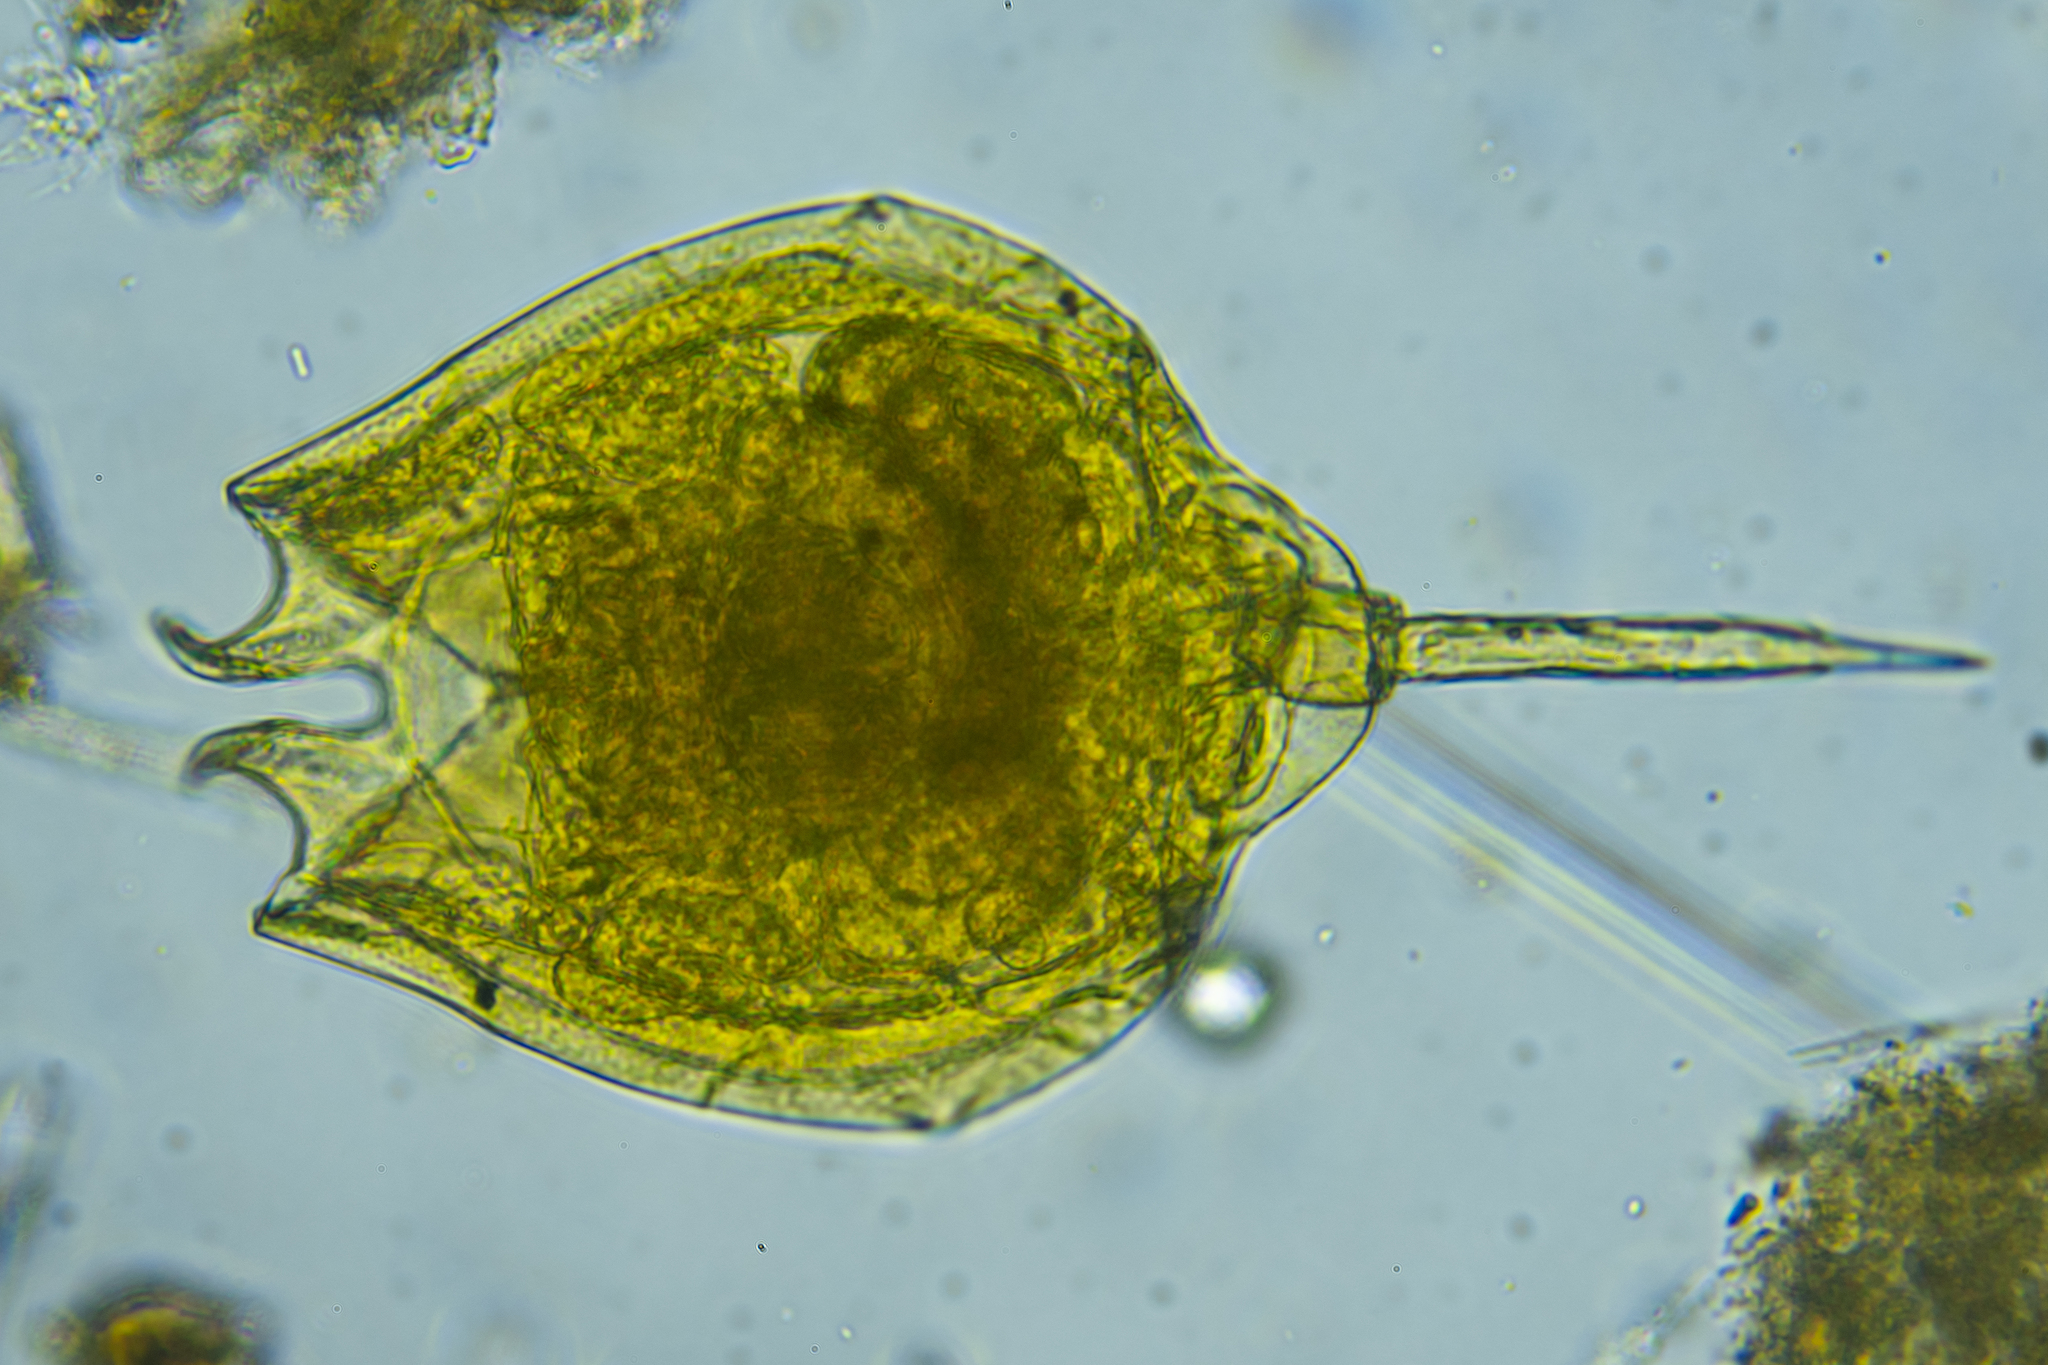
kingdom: Animalia
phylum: Rotifera
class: Eurotatoria
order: Ploima
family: Lecanidae
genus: Lecane
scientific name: Lecane quadridentata
